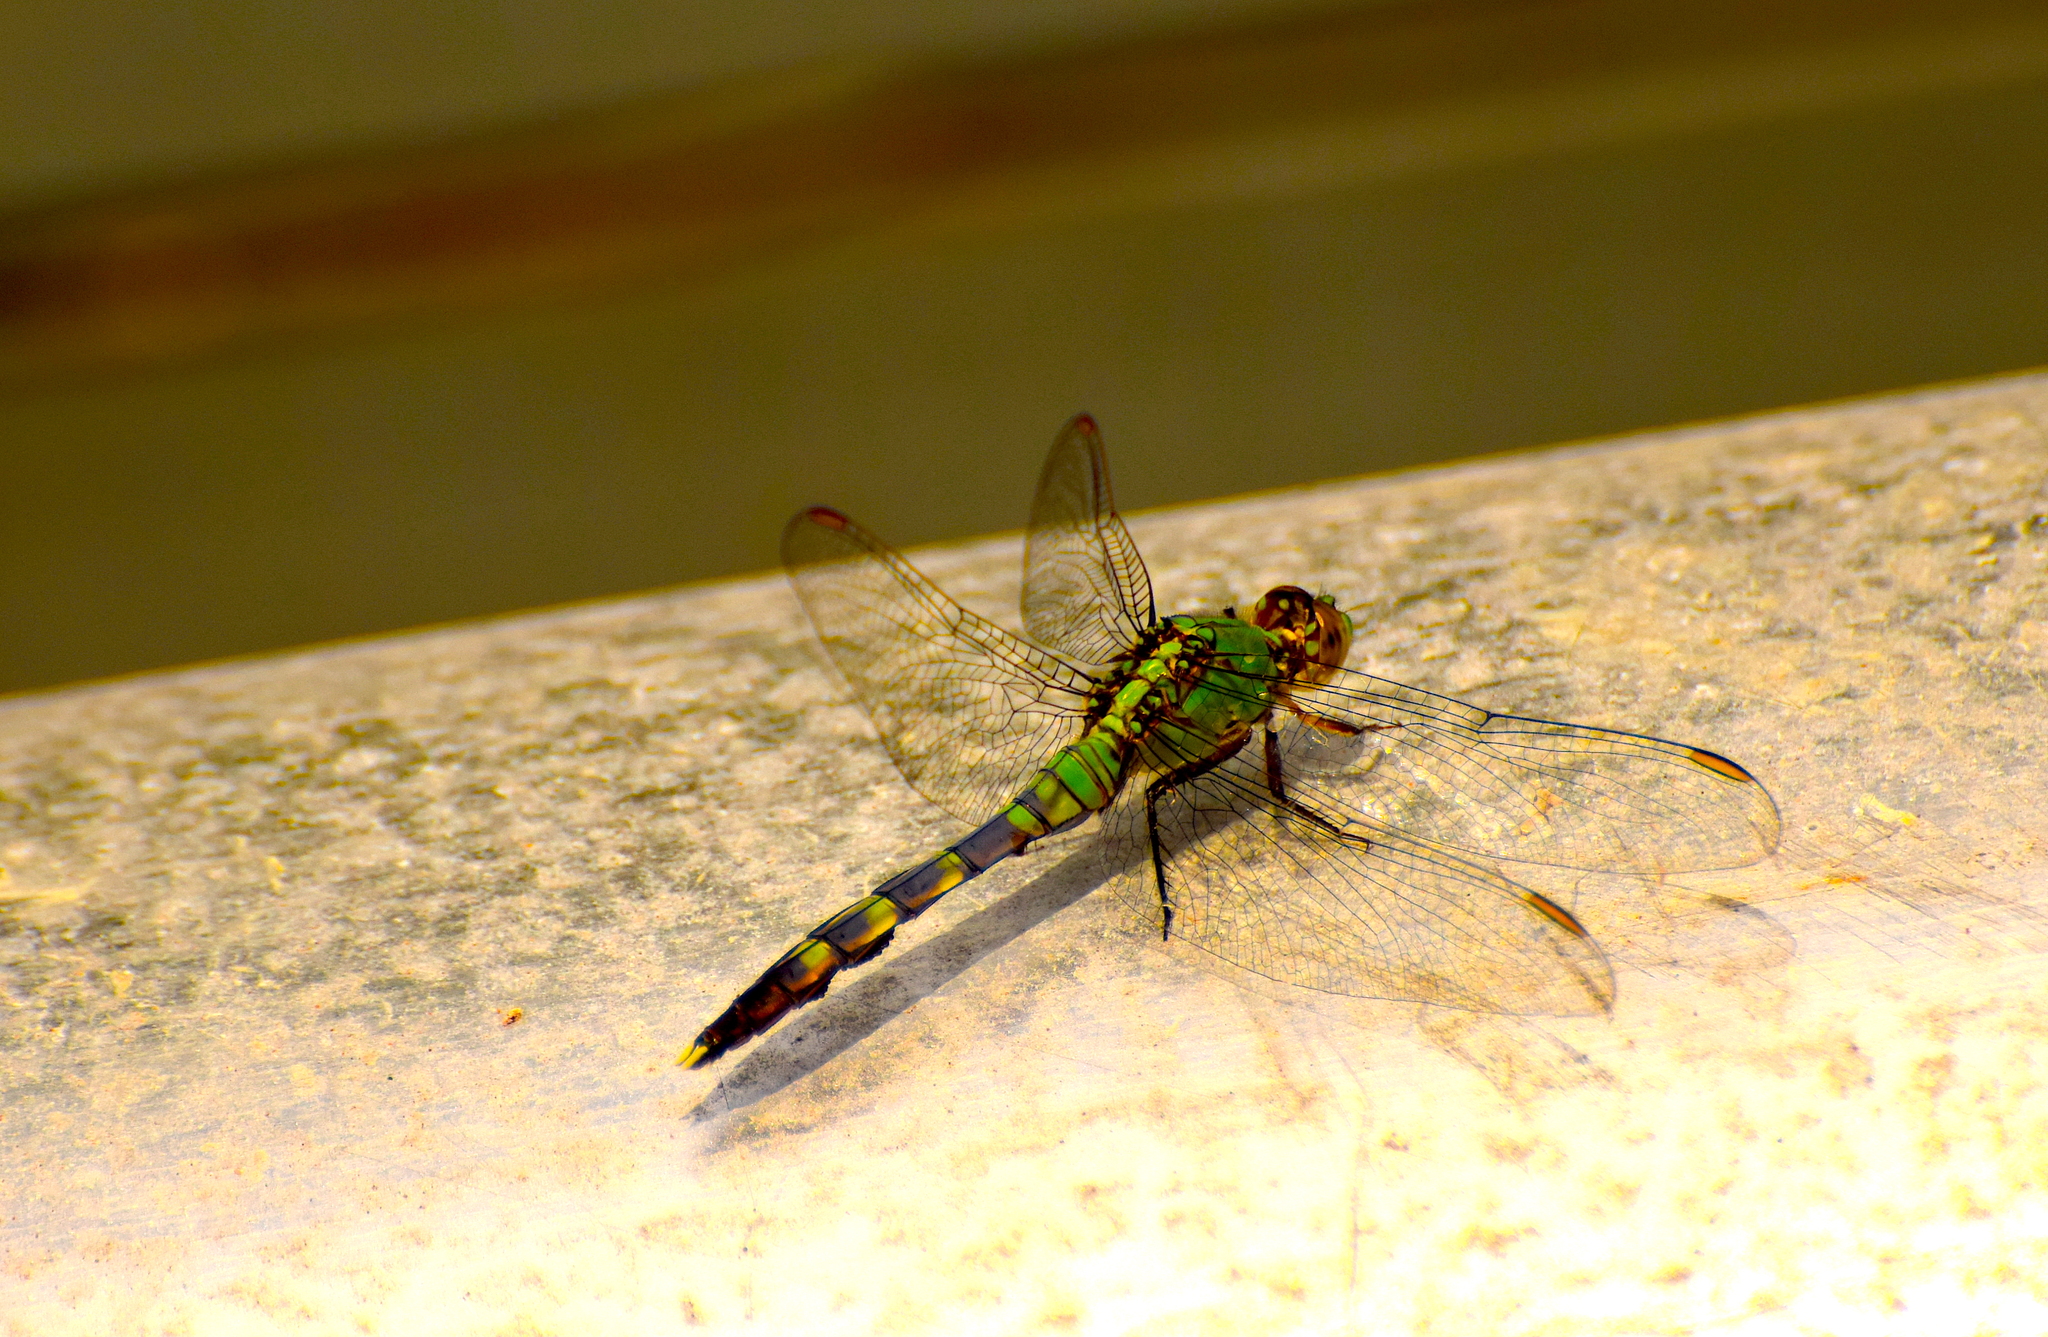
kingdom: Animalia
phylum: Arthropoda
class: Insecta
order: Odonata
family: Libellulidae
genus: Erythemis
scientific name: Erythemis simplicicollis
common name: Eastern pondhawk
